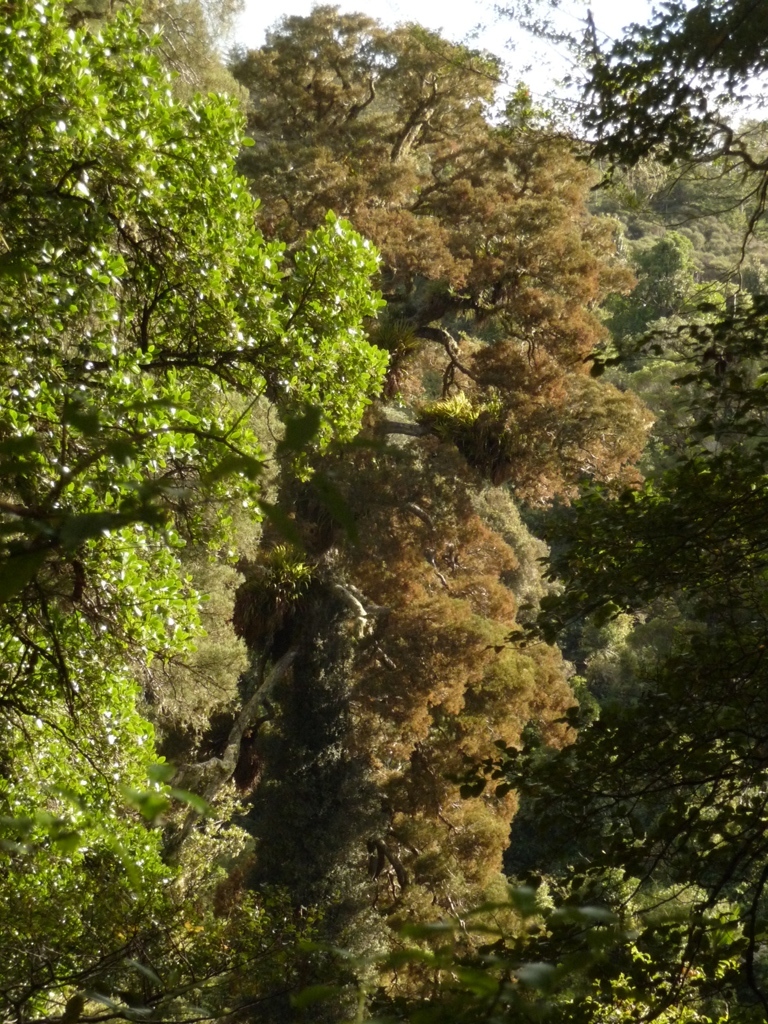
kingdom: Plantae
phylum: Tracheophyta
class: Pinopsida
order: Pinales
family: Podocarpaceae
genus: Dacrycarpus
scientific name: Dacrycarpus dacrydioides
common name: White pine
